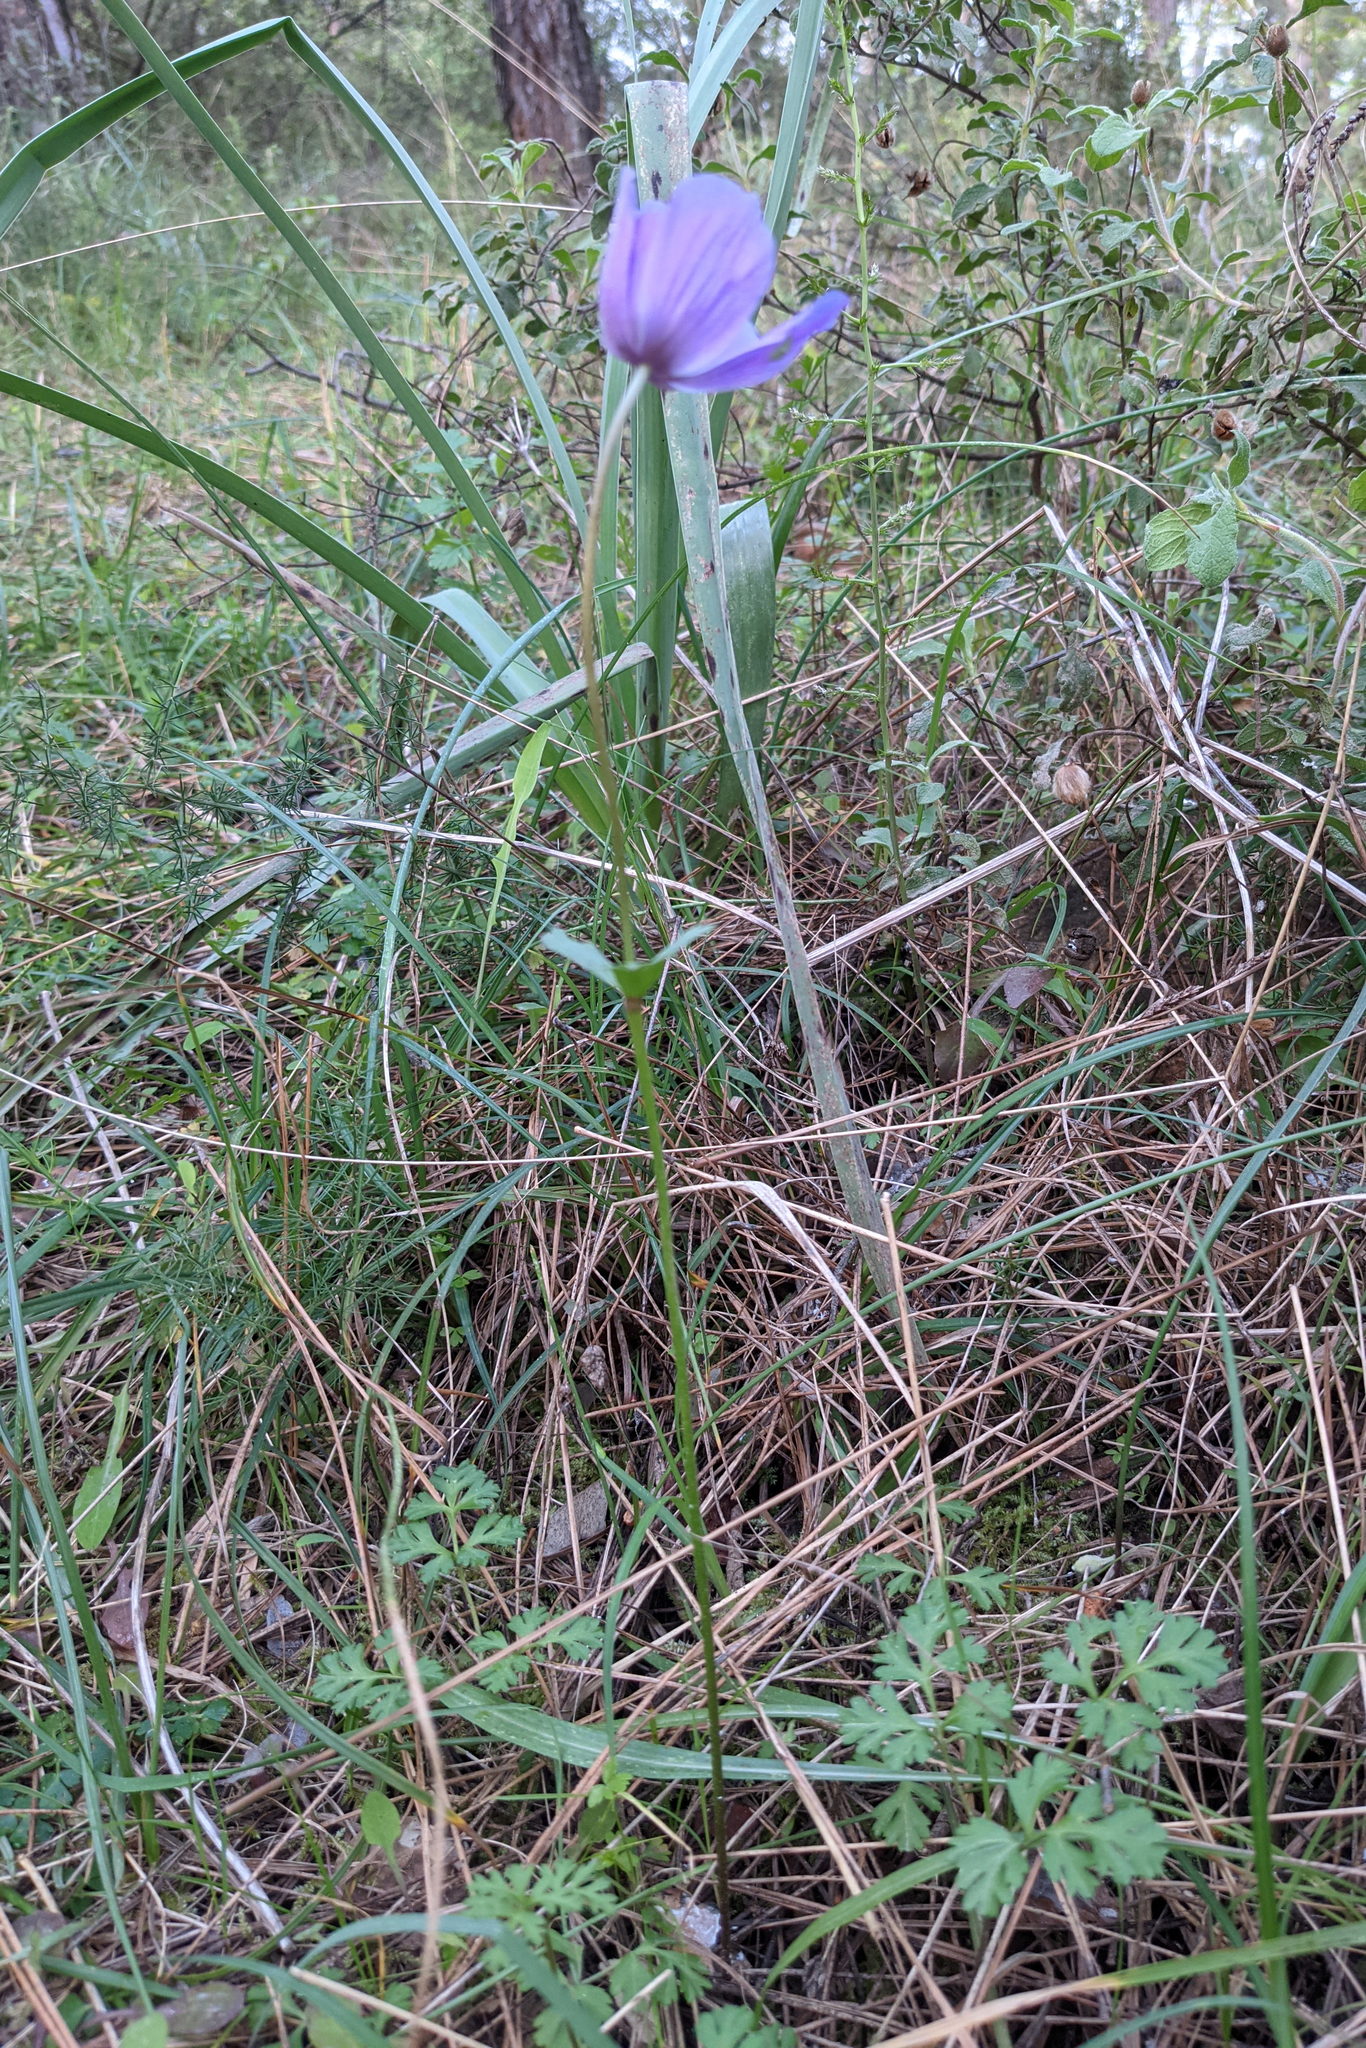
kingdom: Plantae
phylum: Tracheophyta
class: Magnoliopsida
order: Ranunculales
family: Ranunculaceae
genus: Anemone
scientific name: Anemone coronaria
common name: Poppy anemone
